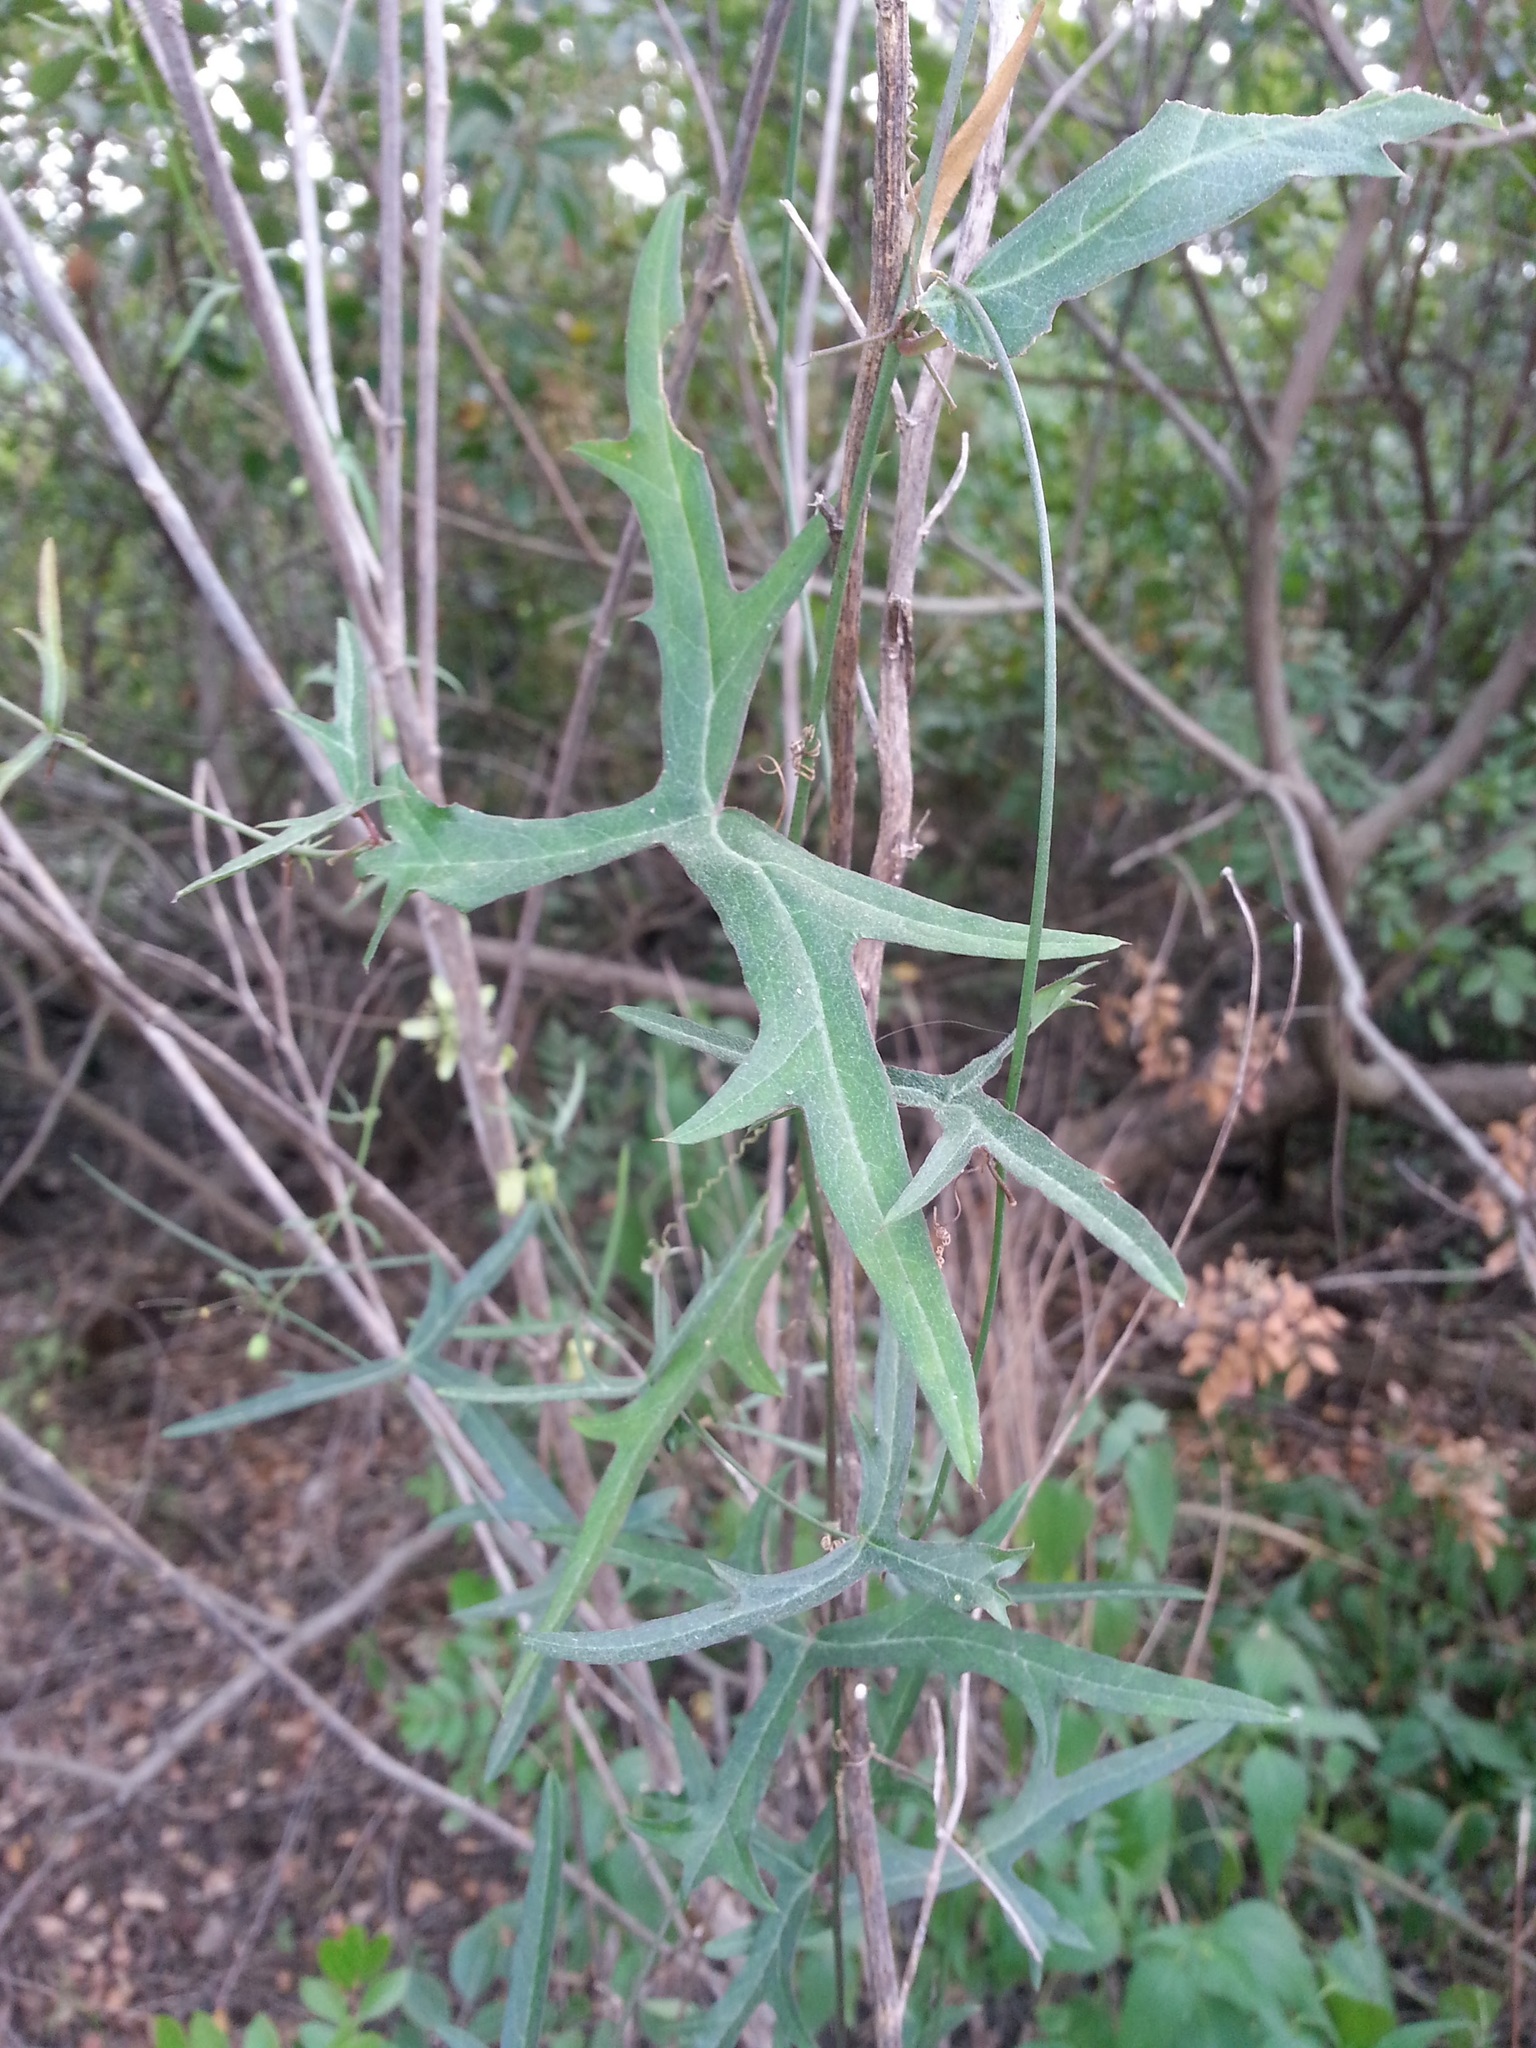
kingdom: Plantae
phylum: Tracheophyta
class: Magnoliopsida
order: Malpighiales
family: Passifloraceae
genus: Passiflora
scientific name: Passiflora tenuiloba
